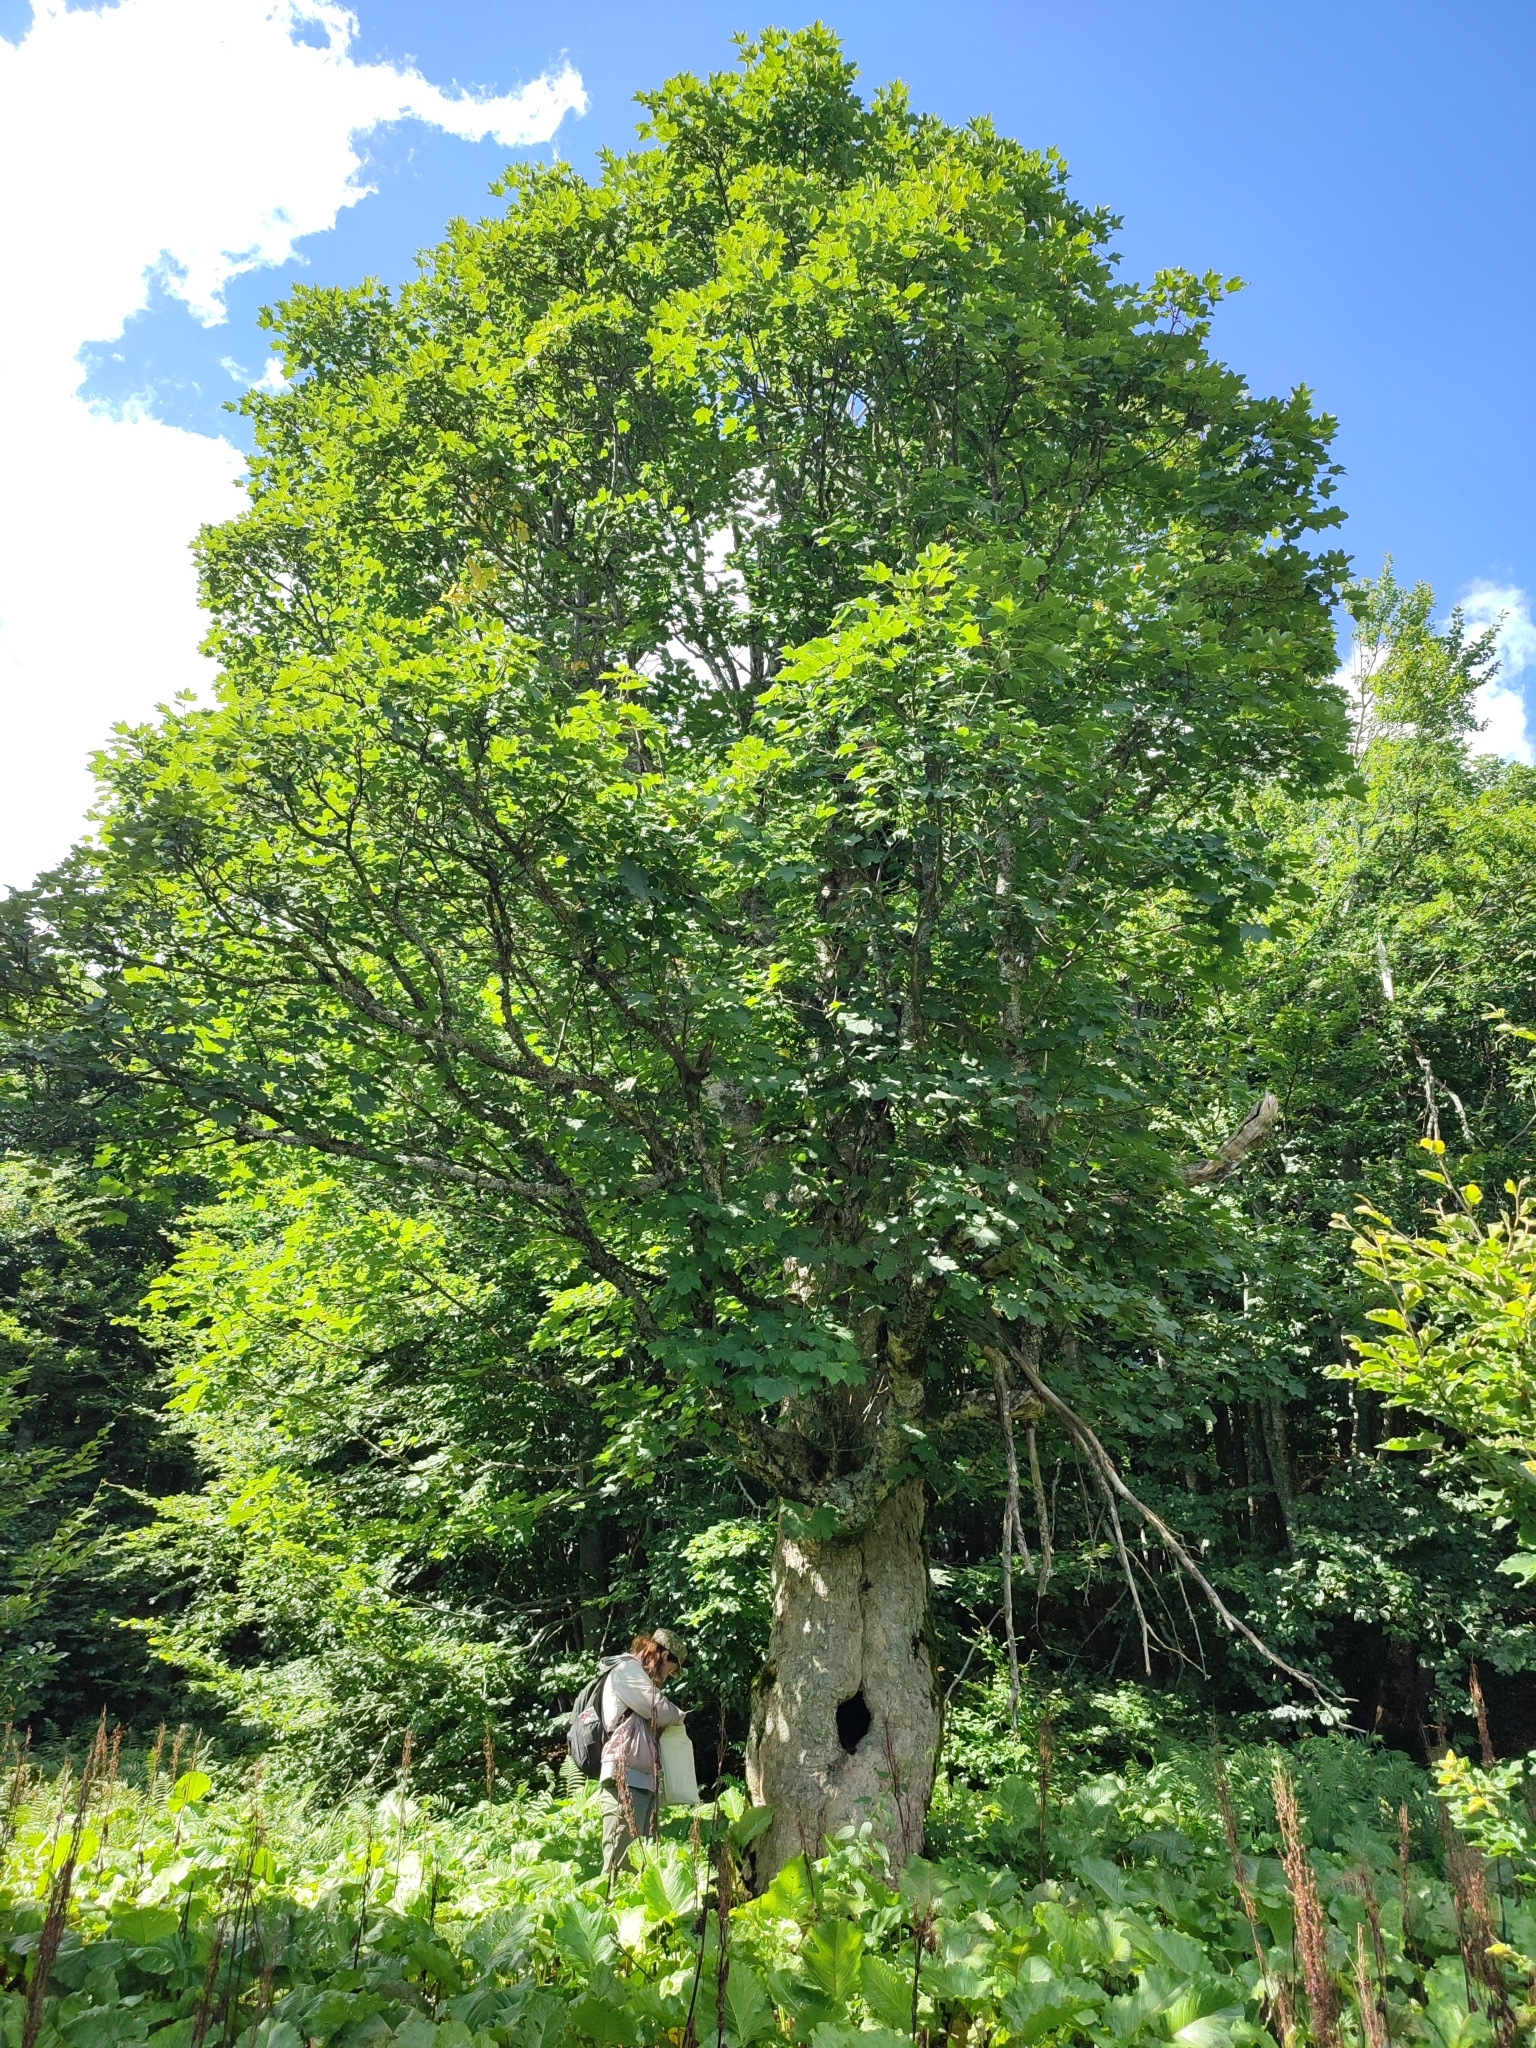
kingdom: Plantae
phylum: Tracheophyta
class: Magnoliopsida
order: Sapindales
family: Sapindaceae
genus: Acer
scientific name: Acer pseudoplatanus
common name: Sycamore
